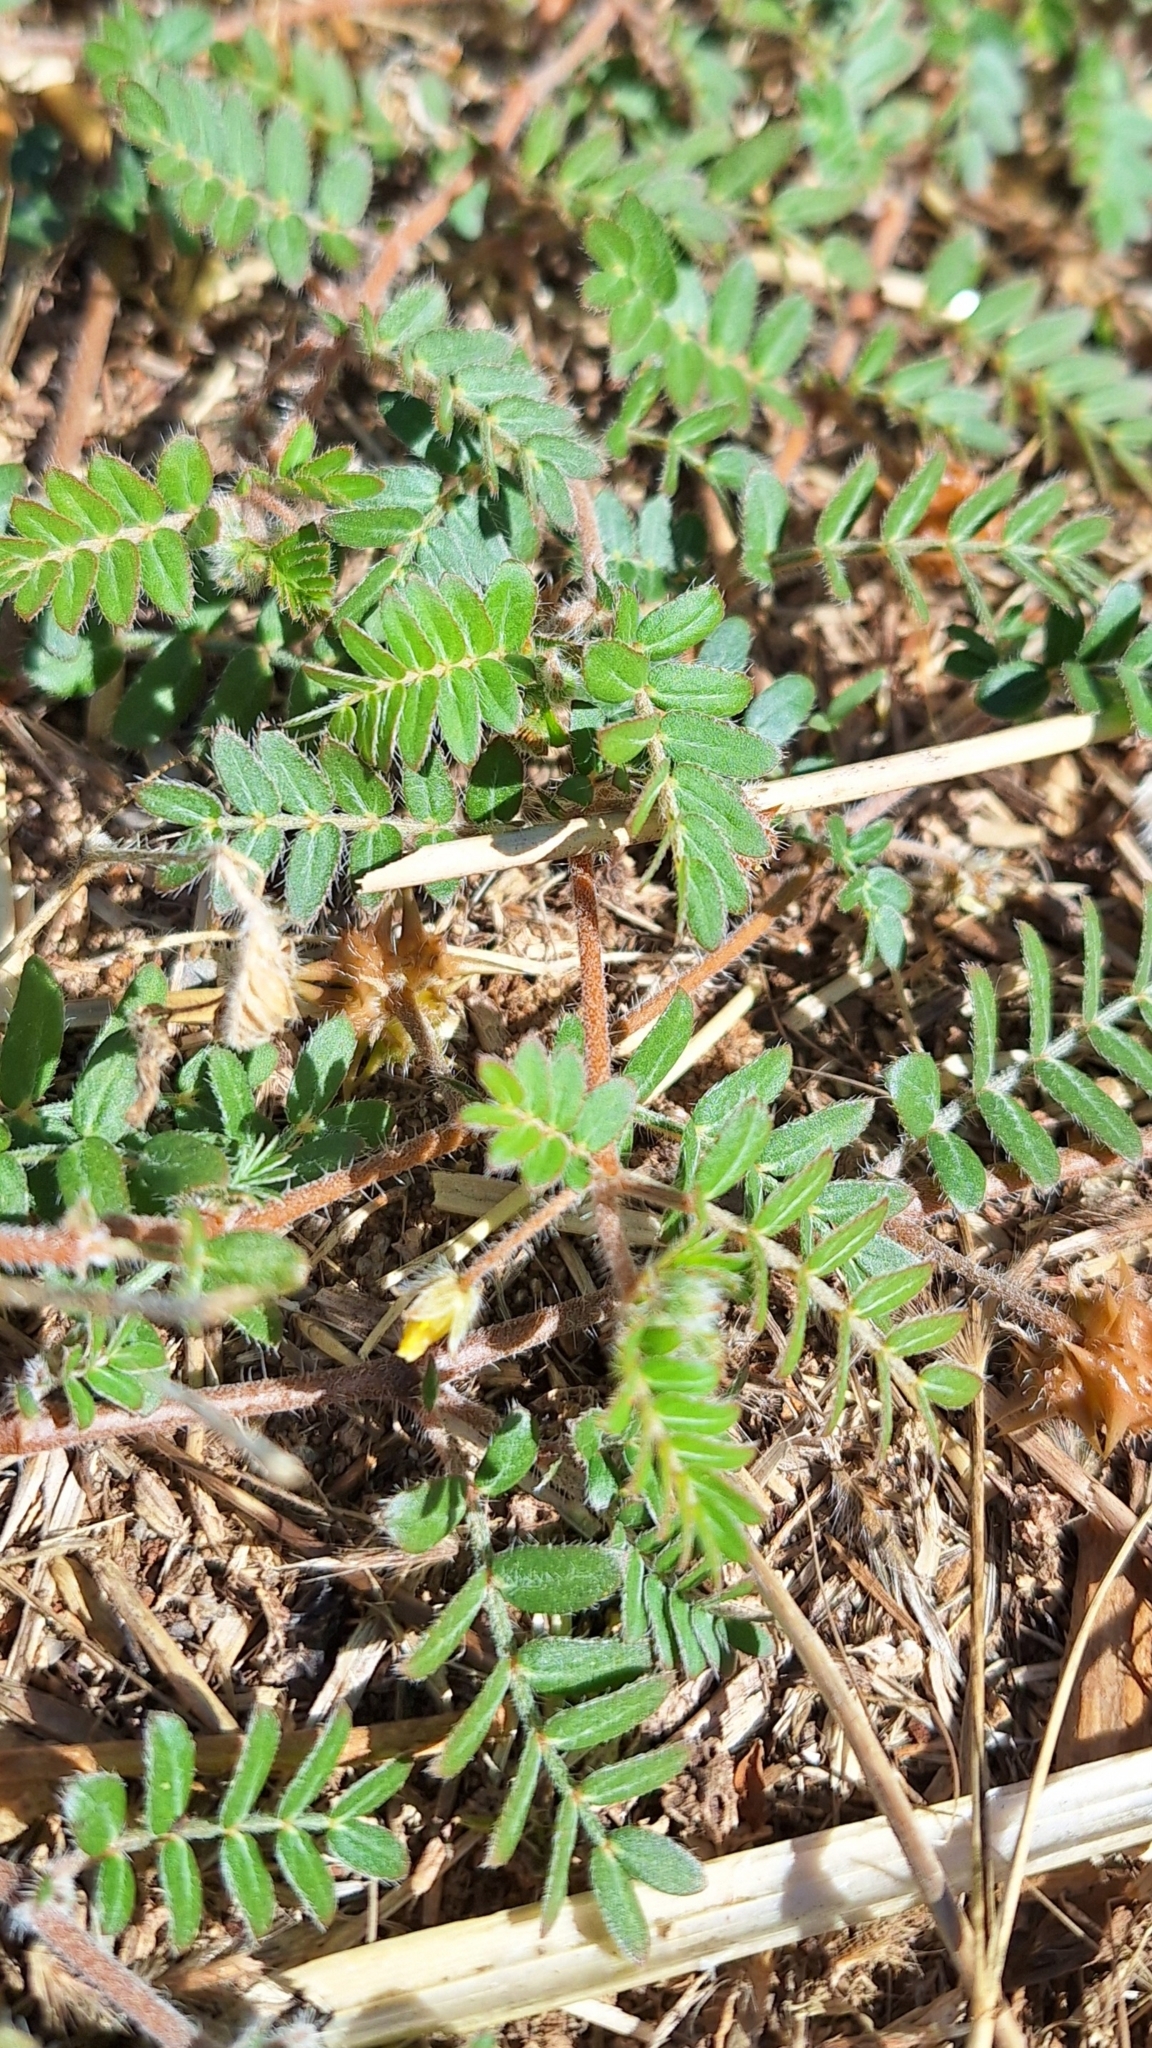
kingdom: Plantae
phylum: Tracheophyta
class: Magnoliopsida
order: Zygophyllales
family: Zygophyllaceae
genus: Tribulus
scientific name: Tribulus terrestris
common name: Puncturevine
